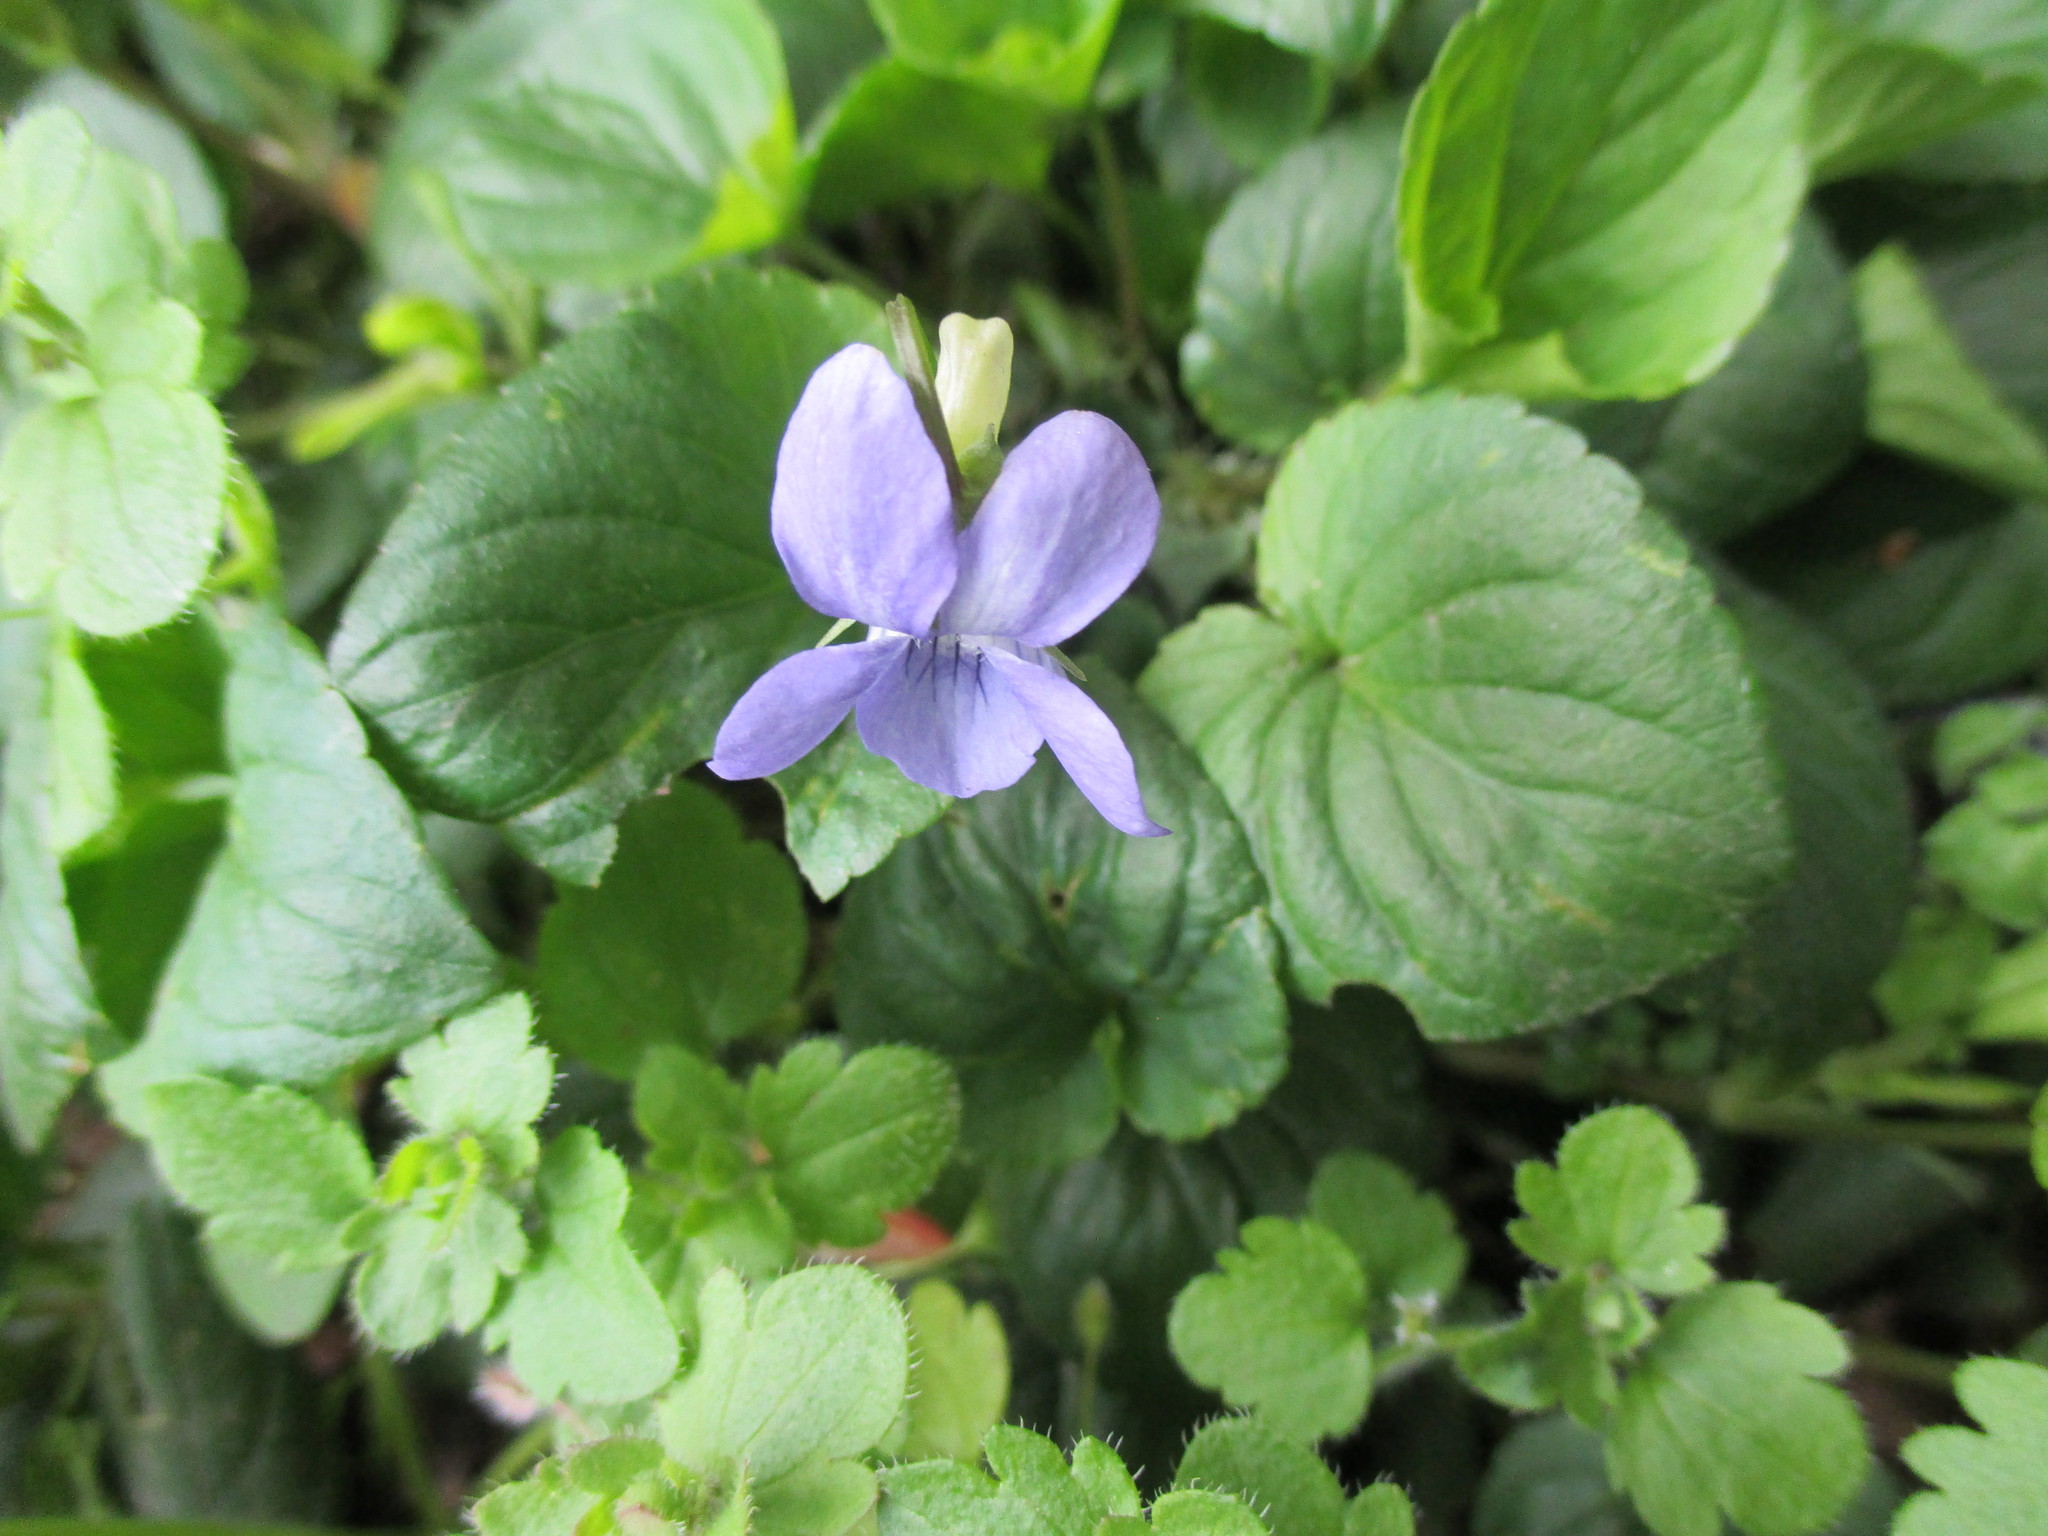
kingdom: Plantae
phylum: Tracheophyta
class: Magnoliopsida
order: Malpighiales
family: Violaceae
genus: Viola
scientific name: Viola riviniana
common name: Common dog-violet
